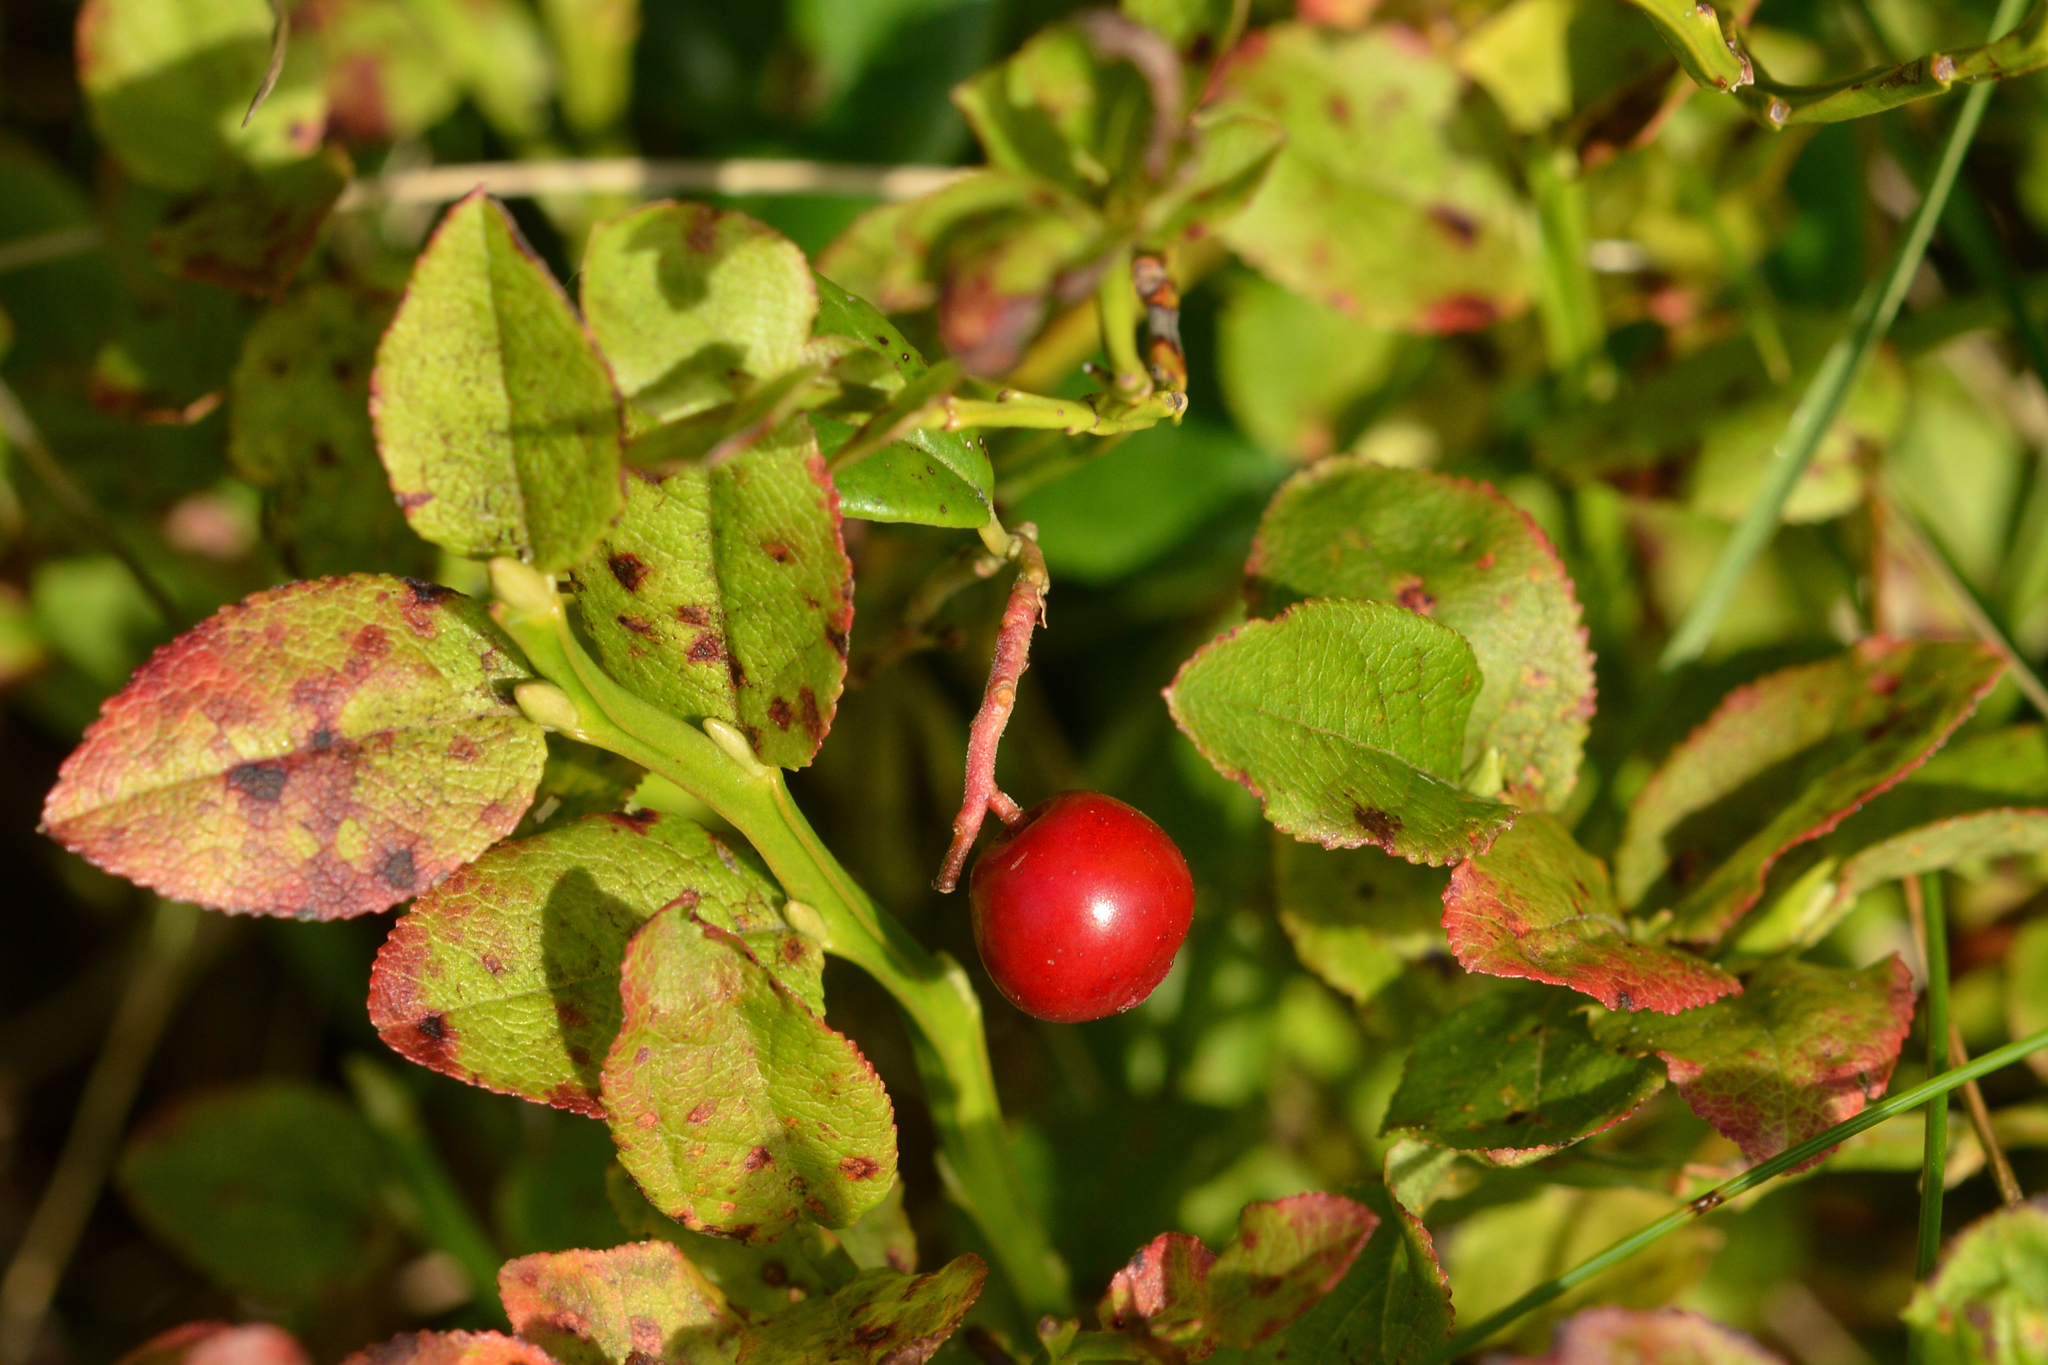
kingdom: Plantae
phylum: Tracheophyta
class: Magnoliopsida
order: Ericales
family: Ericaceae
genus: Vaccinium
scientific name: Vaccinium vitis-idaea
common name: Cowberry
